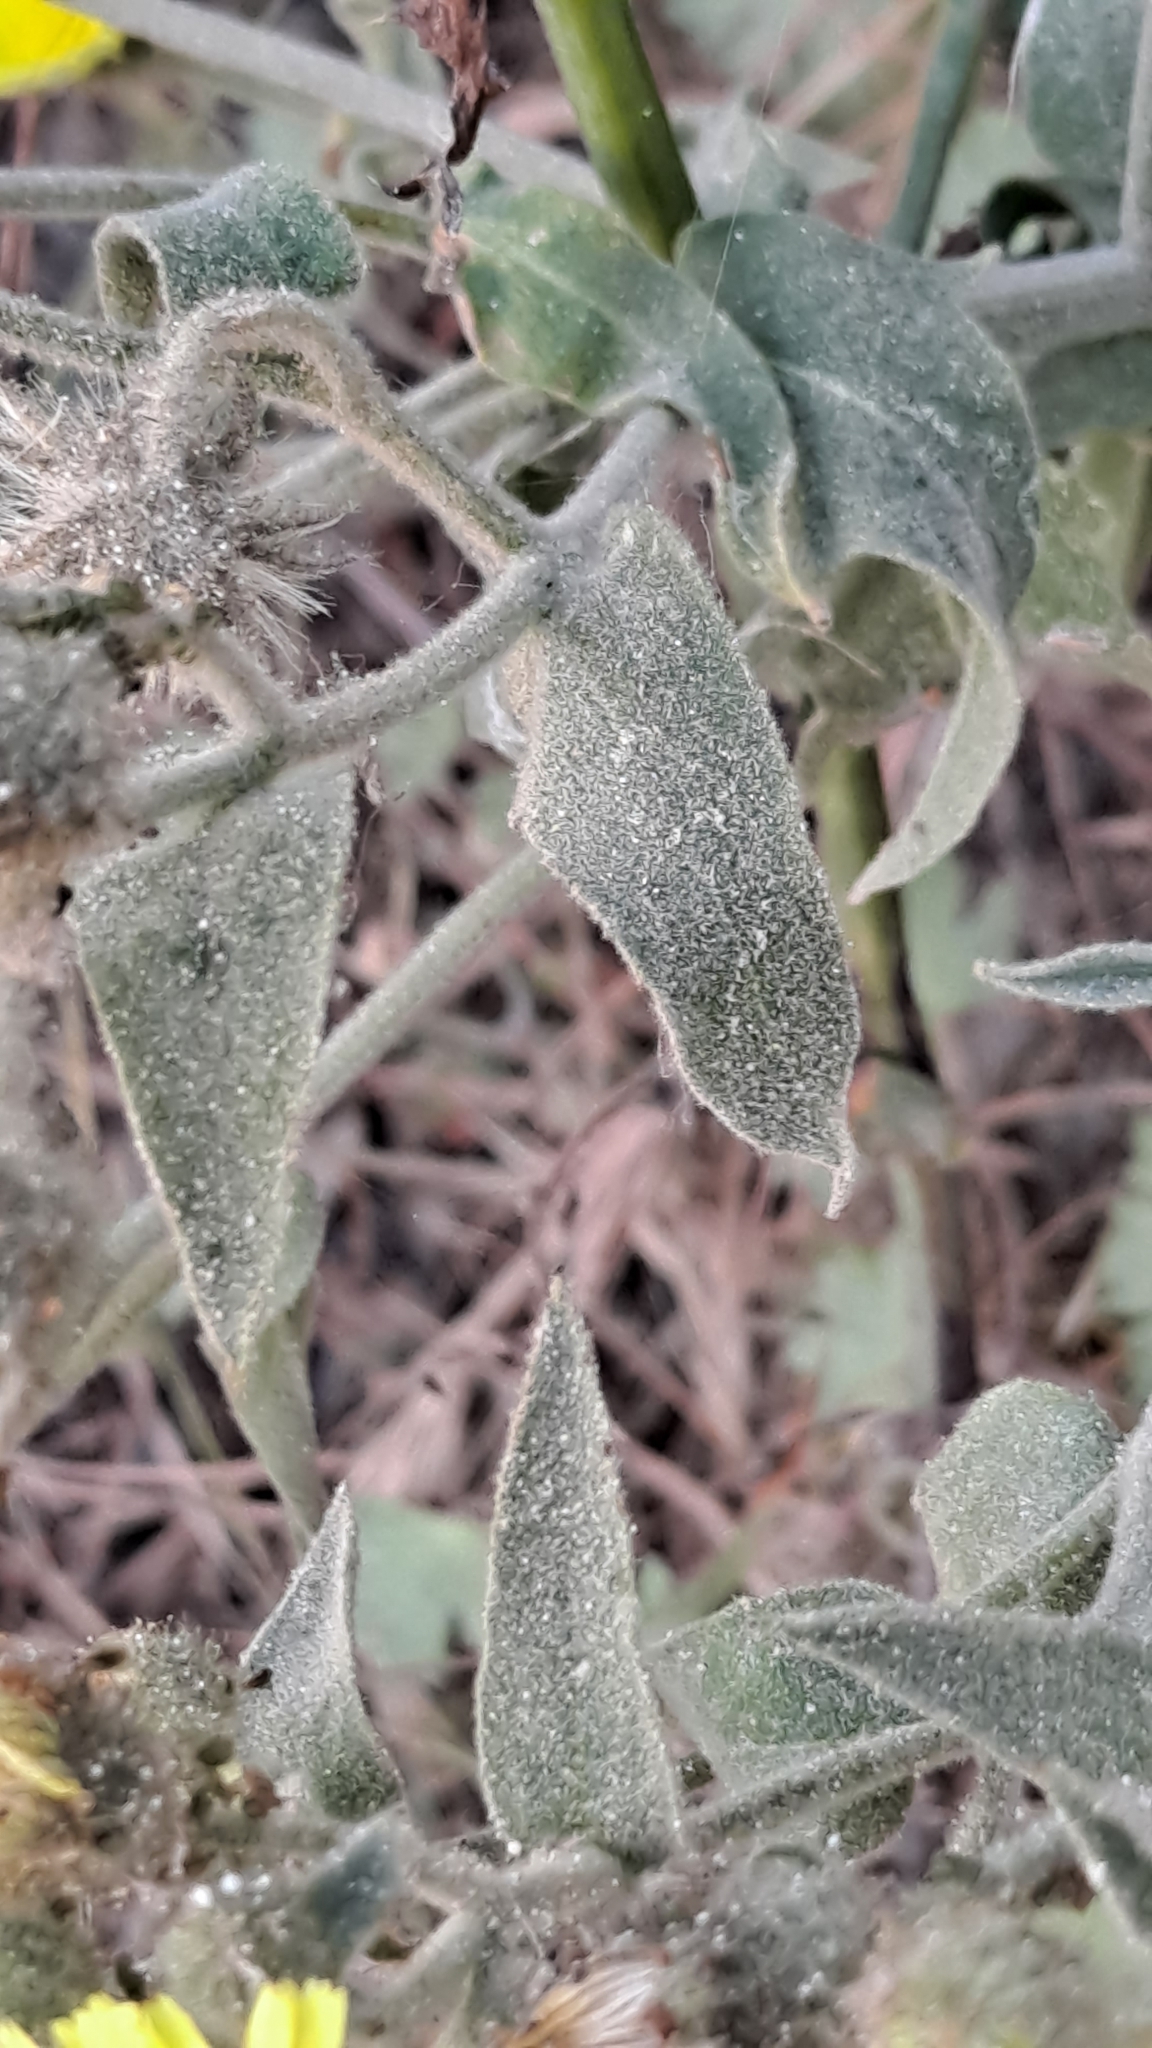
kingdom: Plantae
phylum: Tracheophyta
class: Magnoliopsida
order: Asterales
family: Asteraceae
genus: Andryala
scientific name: Andryala integrifolia
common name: Common andryala
